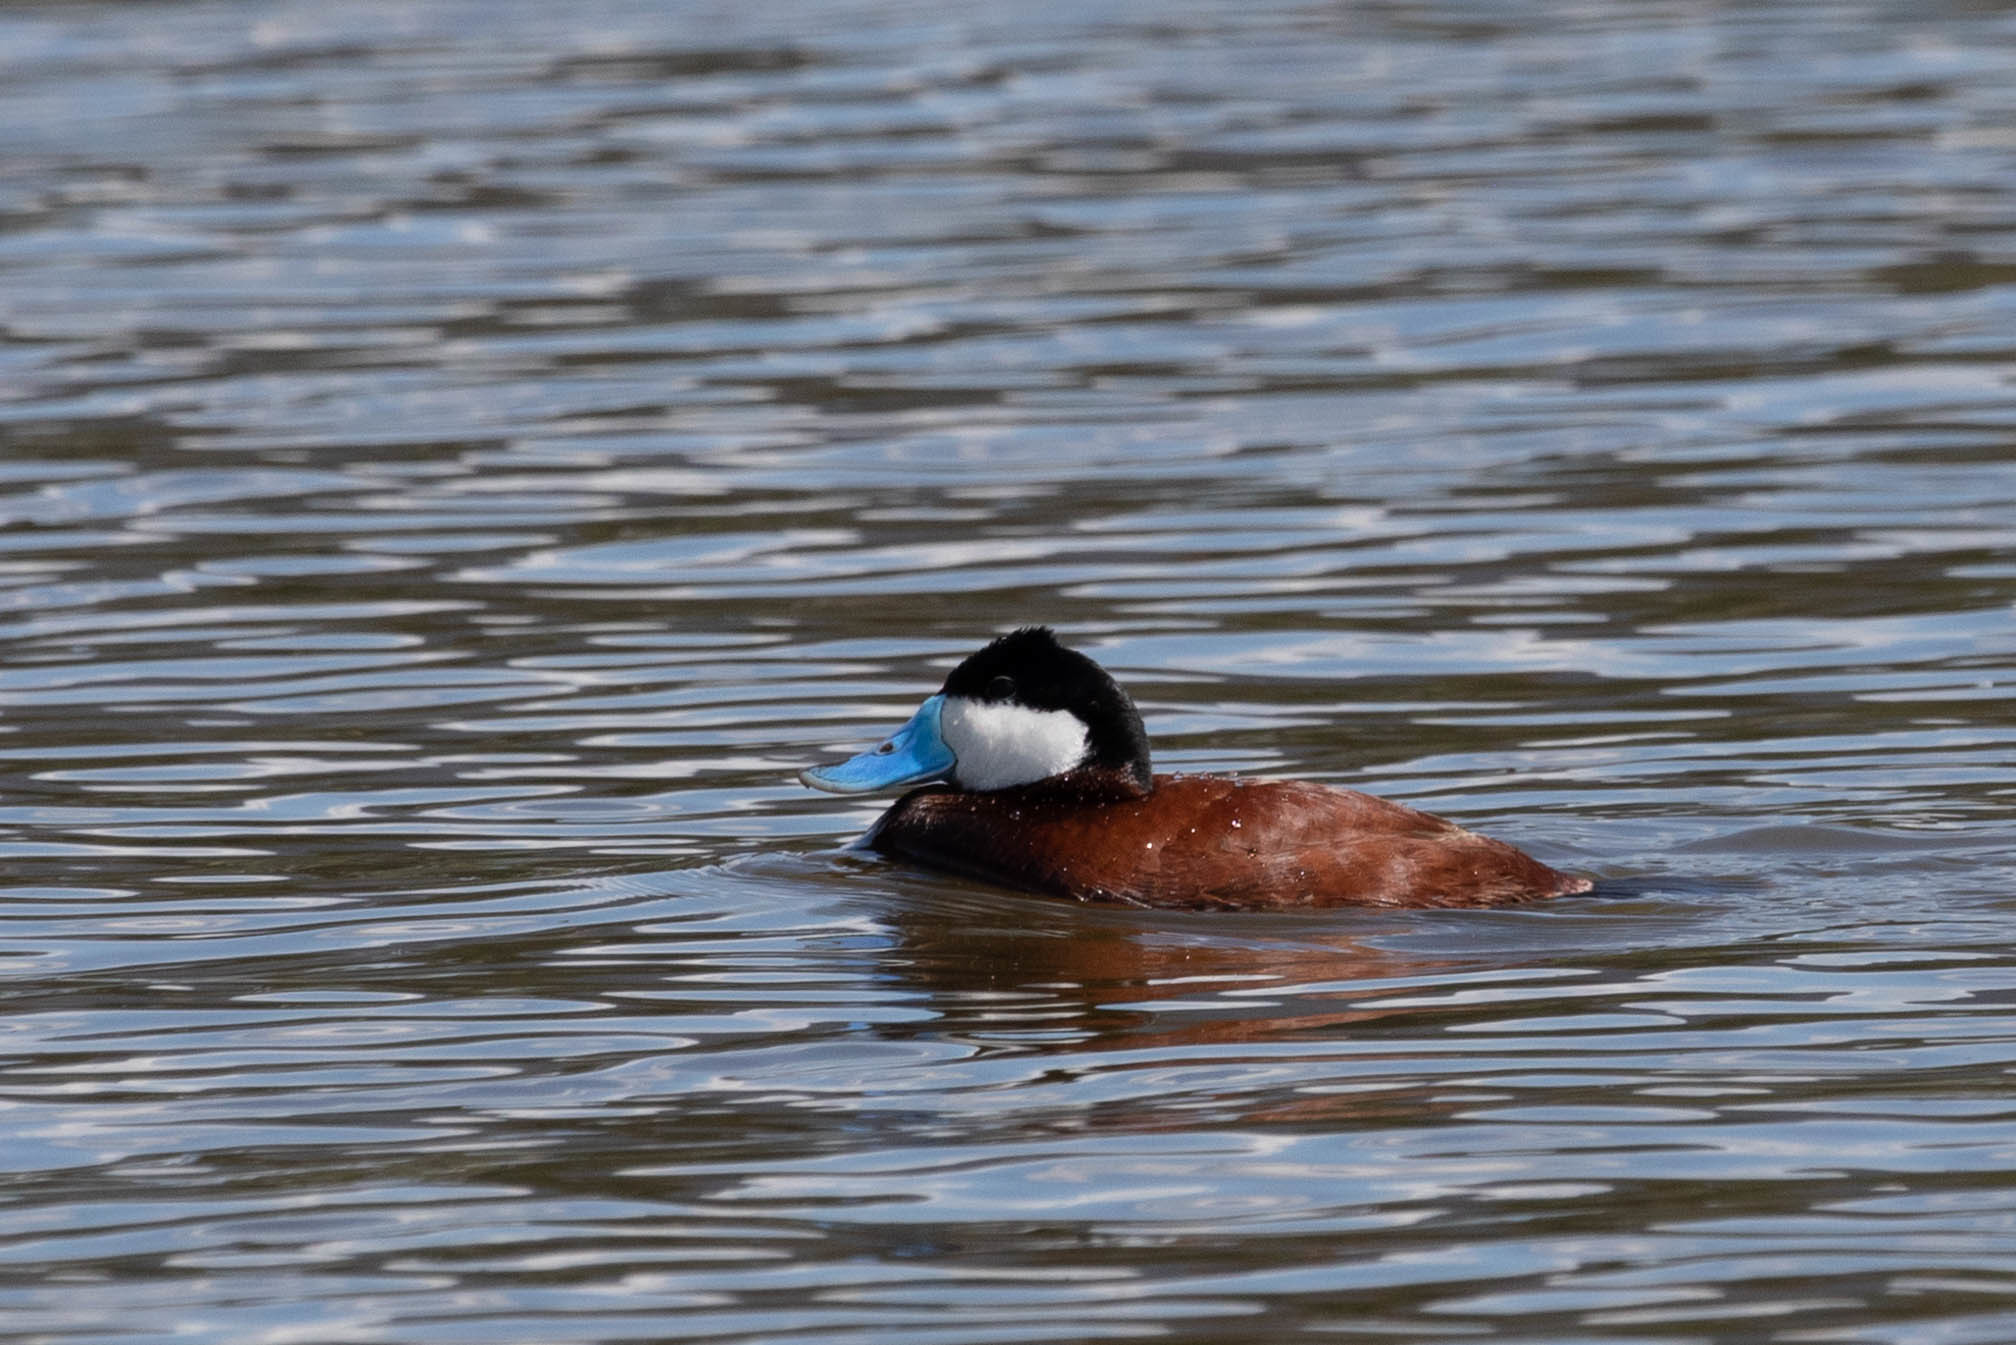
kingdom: Animalia
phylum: Chordata
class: Aves
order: Anseriformes
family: Anatidae
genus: Oxyura
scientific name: Oxyura jamaicensis
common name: Ruddy duck
